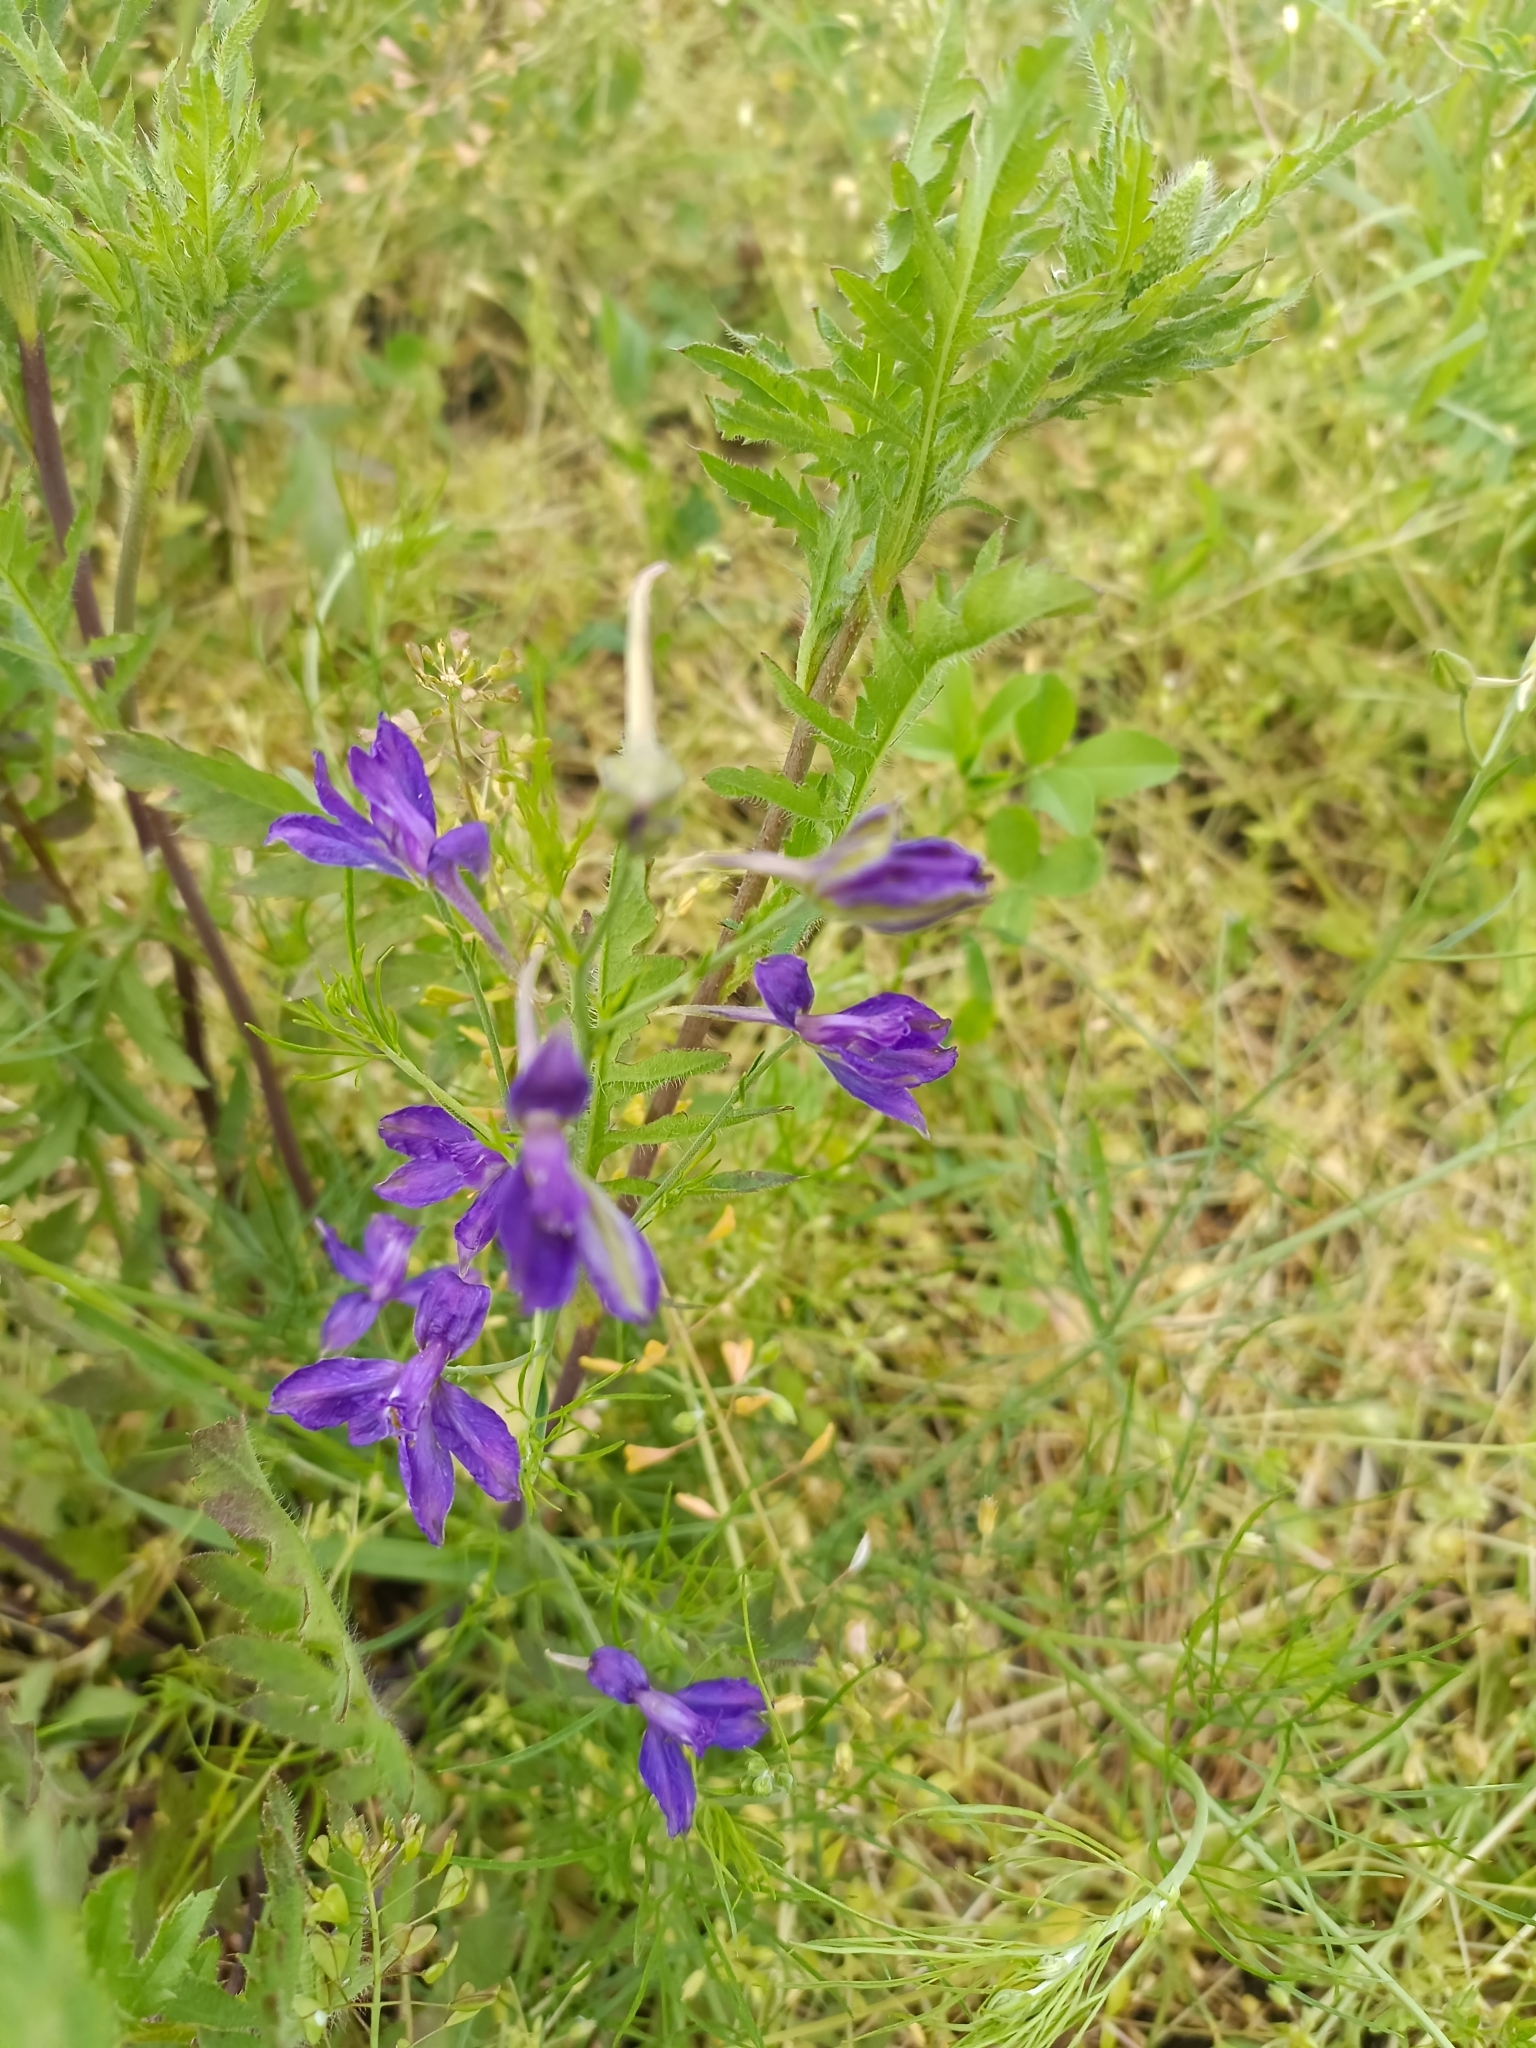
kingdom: Plantae
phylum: Tracheophyta
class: Magnoliopsida
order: Ranunculales
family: Ranunculaceae
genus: Delphinium
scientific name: Delphinium consolida
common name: Branching larkspur
